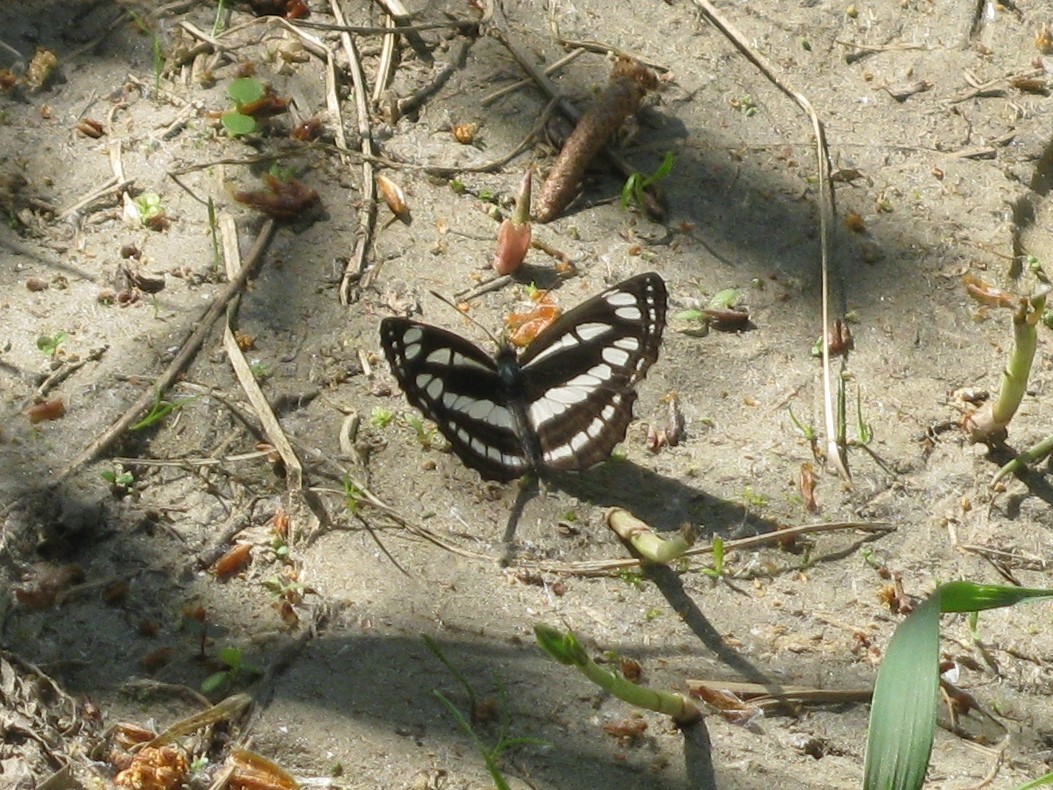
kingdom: Animalia
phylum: Arthropoda
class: Insecta
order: Lepidoptera
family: Nymphalidae
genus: Neptis
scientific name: Neptis sappho
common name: Common glider
